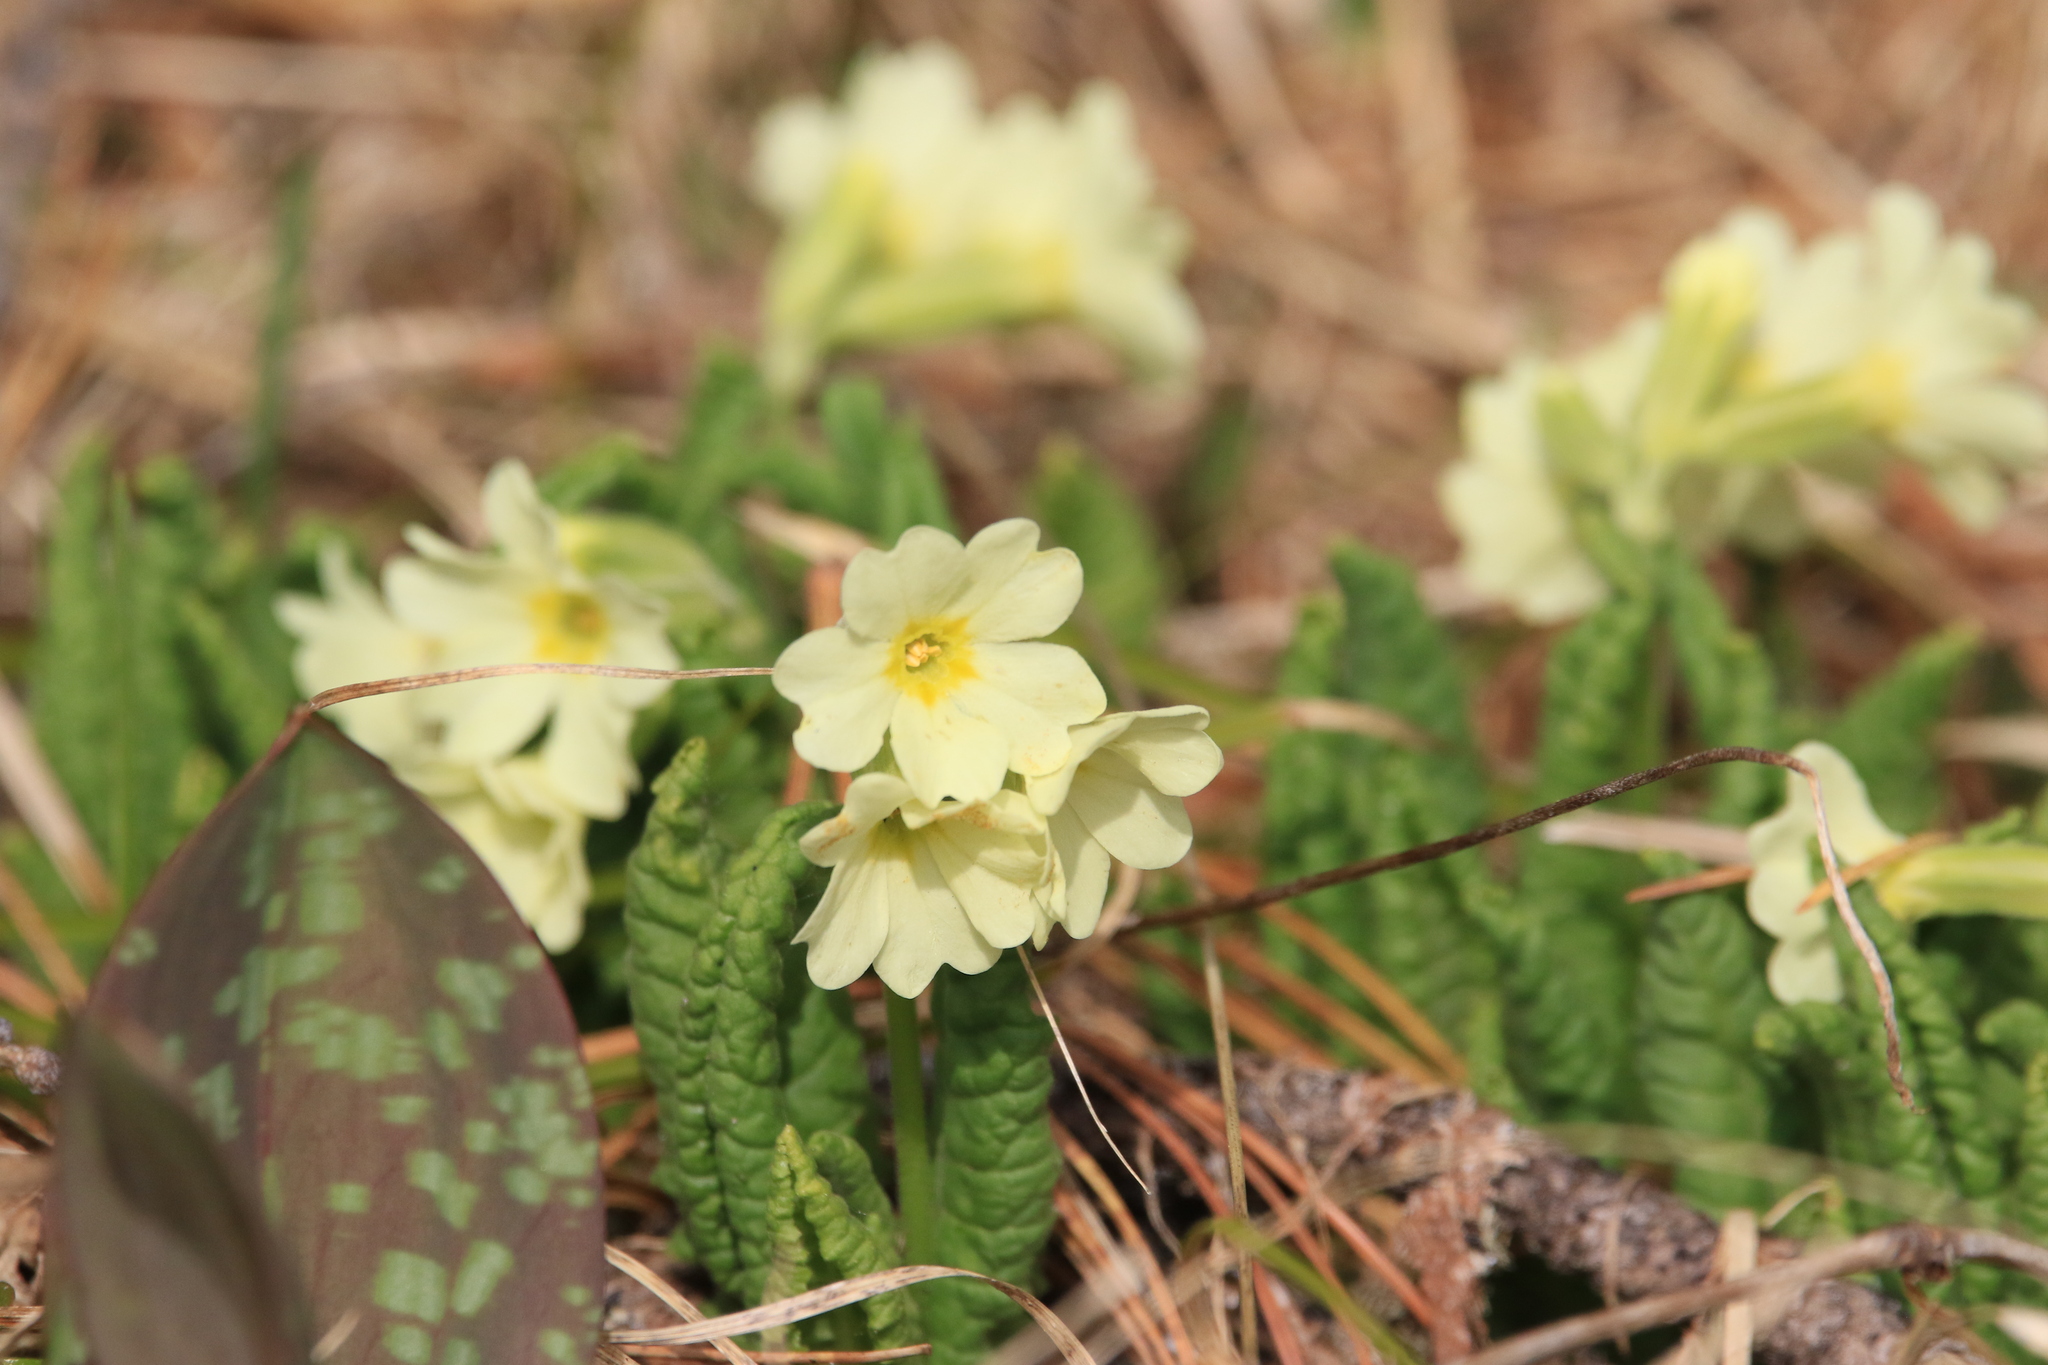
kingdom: Plantae
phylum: Tracheophyta
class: Magnoliopsida
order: Ericales
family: Primulaceae
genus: Primula
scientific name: Primula elatior
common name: Oxlip
